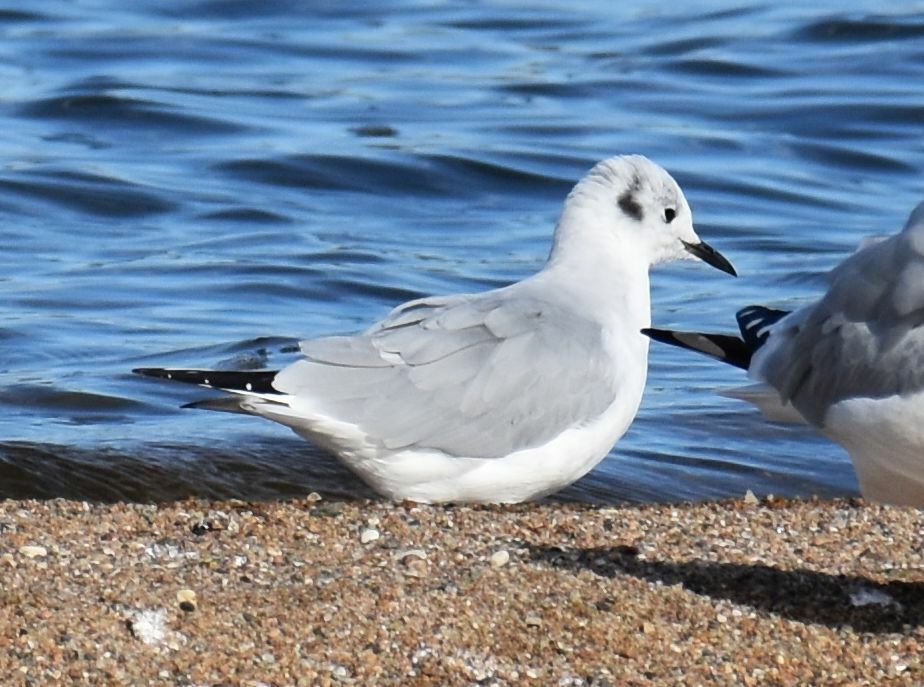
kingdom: Animalia
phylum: Chordata
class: Aves
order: Charadriiformes
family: Laridae
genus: Chroicocephalus
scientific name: Chroicocephalus philadelphia
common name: Bonaparte's gull
